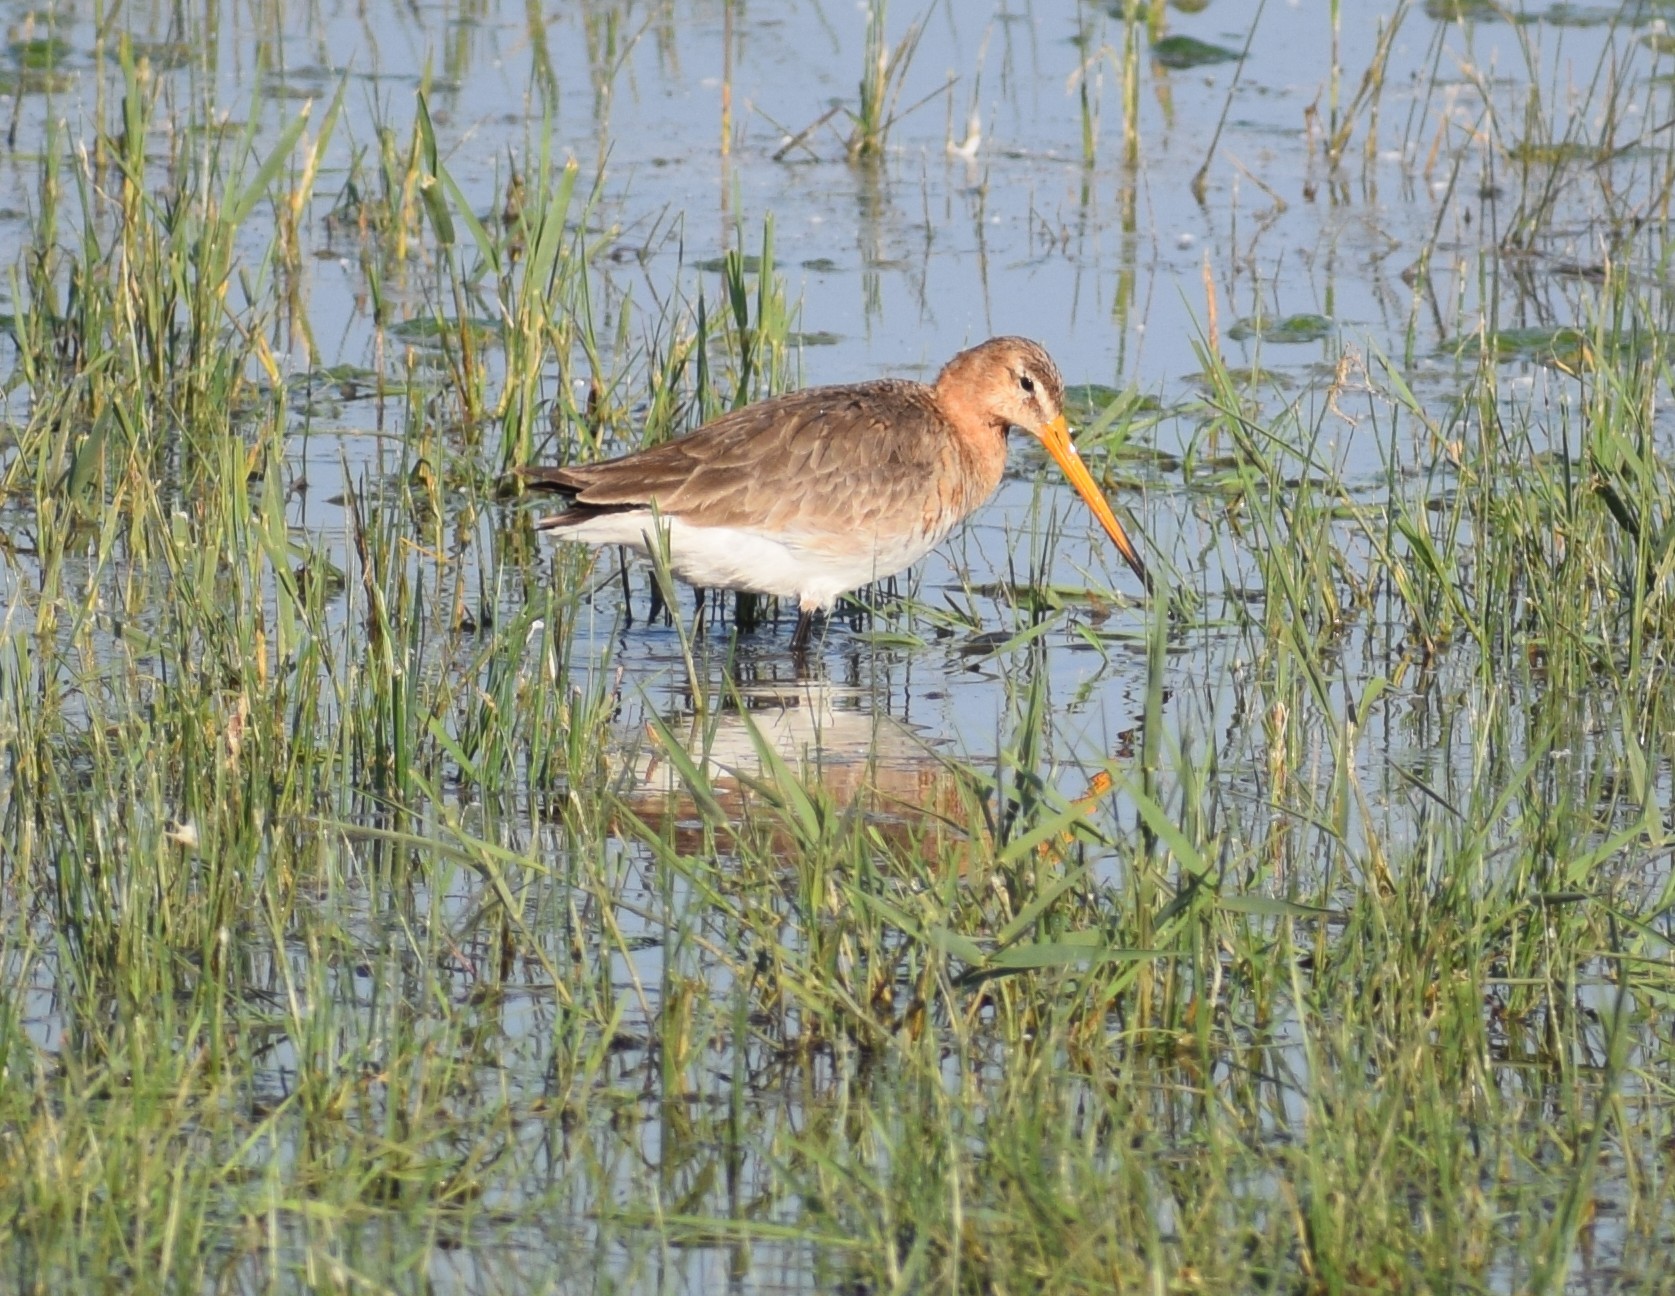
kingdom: Animalia
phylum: Chordata
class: Aves
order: Charadriiformes
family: Scolopacidae
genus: Limosa
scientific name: Limosa limosa
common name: Black-tailed godwit
